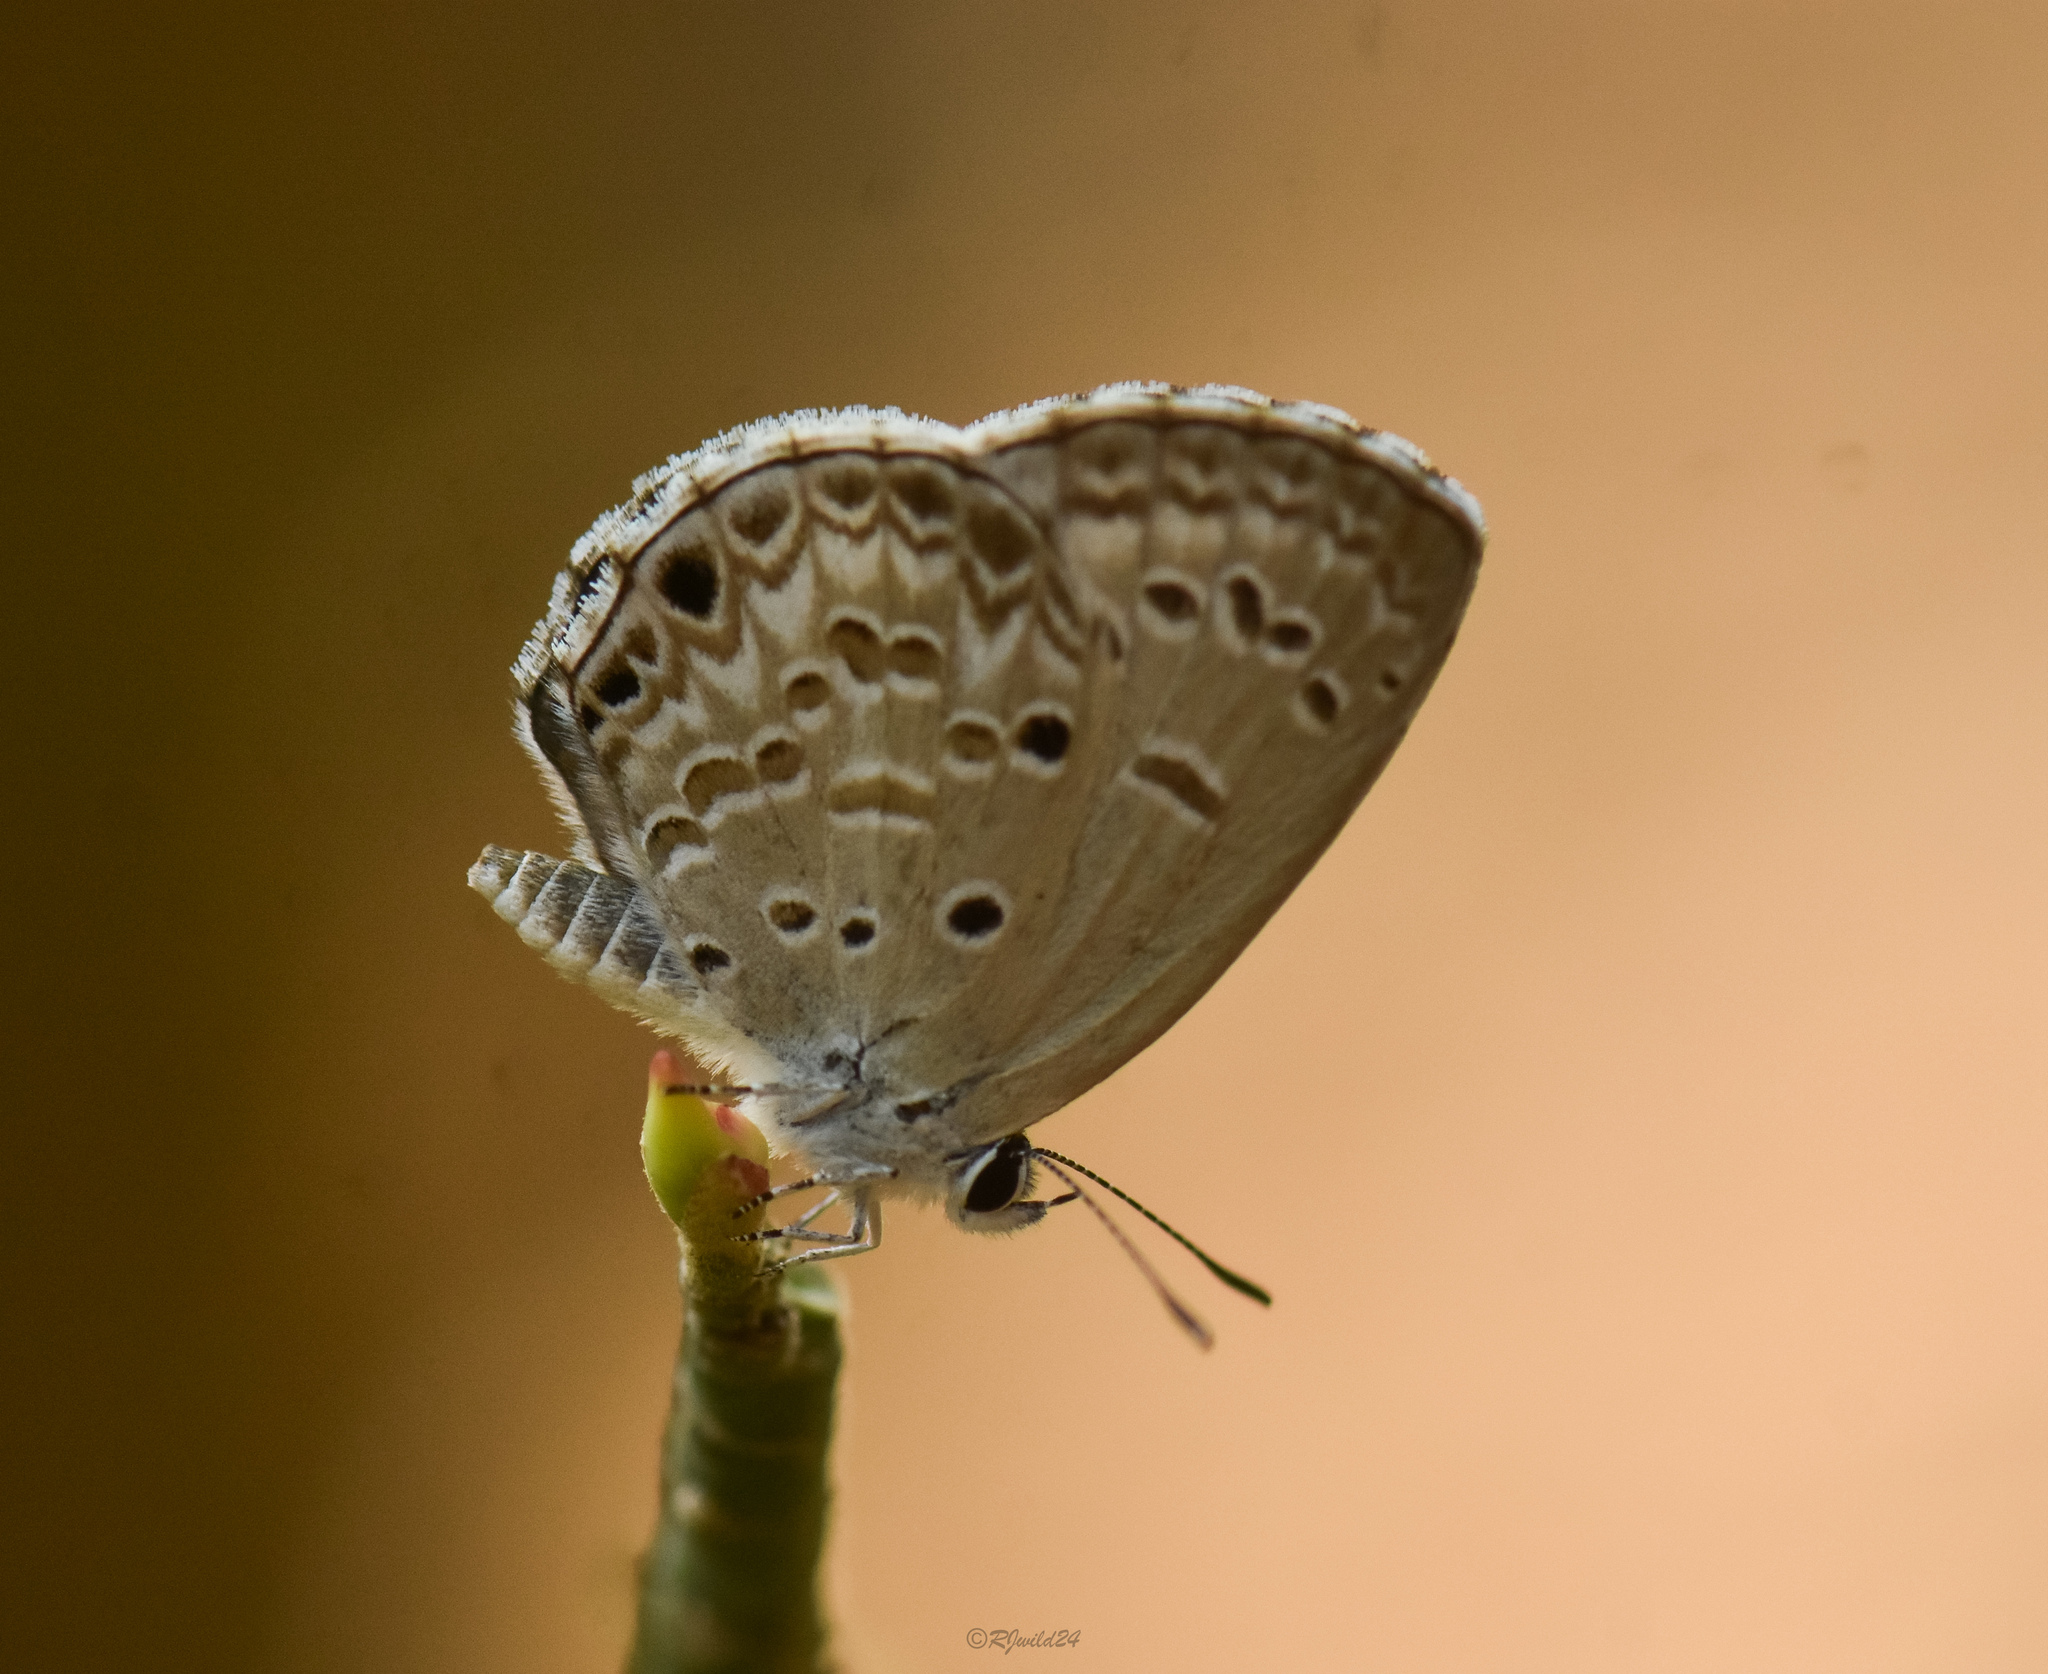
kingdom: Animalia
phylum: Arthropoda
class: Insecta
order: Lepidoptera
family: Lycaenidae
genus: Chilades
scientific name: Chilades laius
